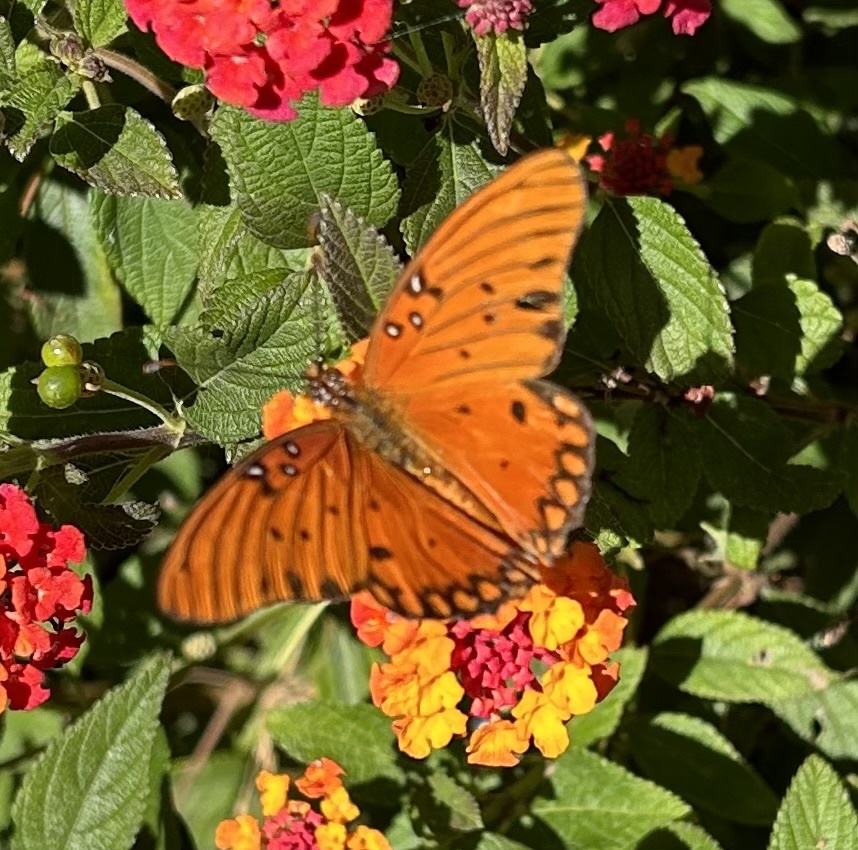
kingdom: Animalia
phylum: Arthropoda
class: Insecta
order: Lepidoptera
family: Nymphalidae
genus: Dione
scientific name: Dione vanillae
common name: Gulf fritillary
